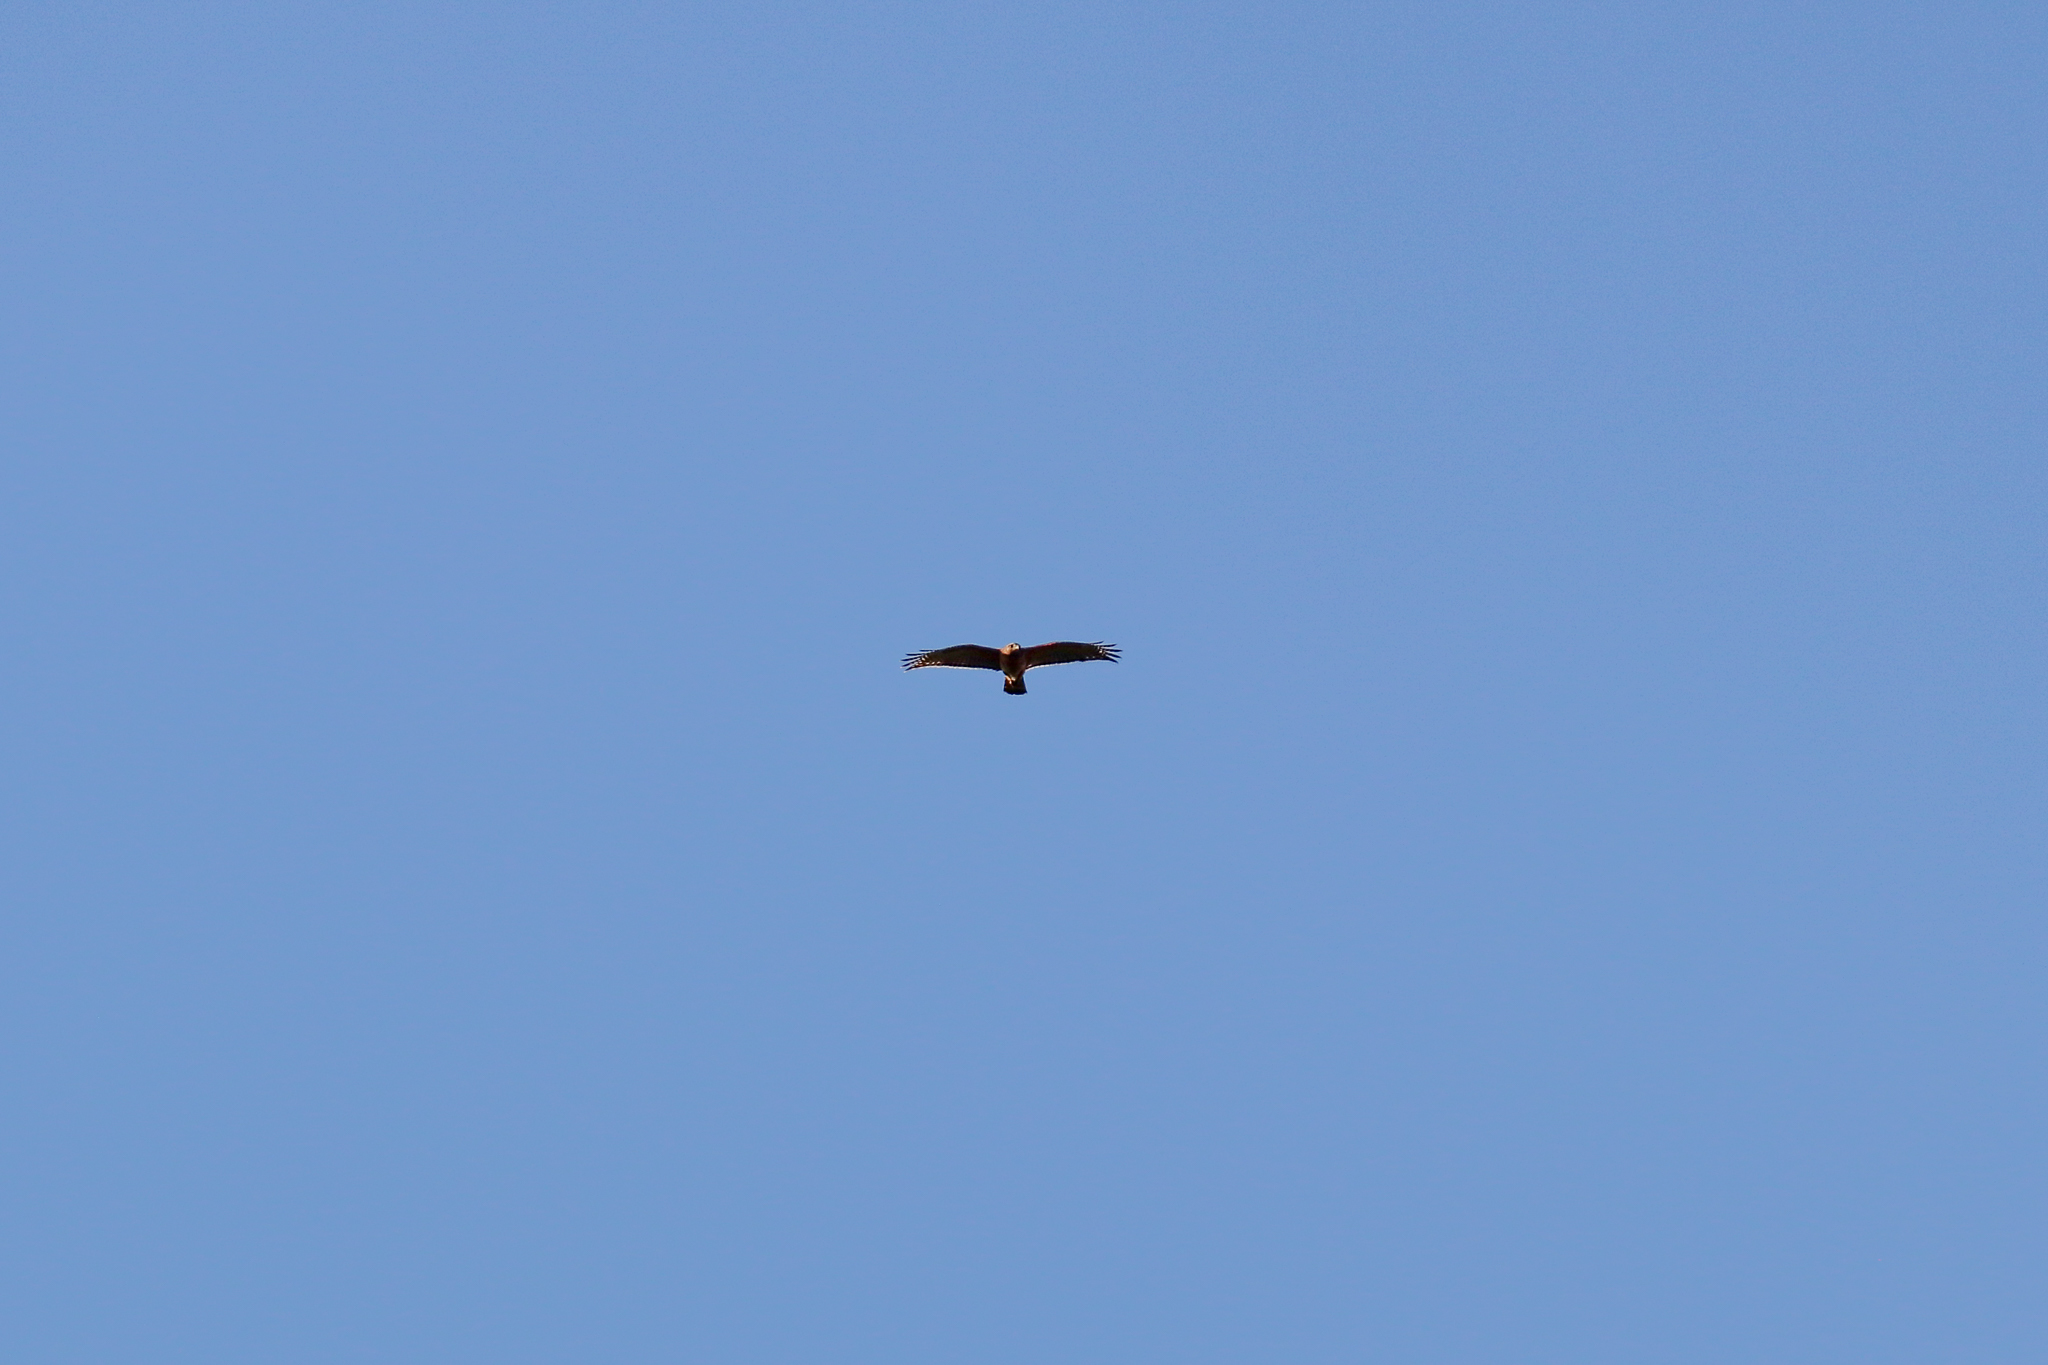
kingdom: Animalia
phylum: Chordata
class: Aves
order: Accipitriformes
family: Accipitridae
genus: Buteo
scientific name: Buteo lineatus
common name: Red-shouldered hawk
